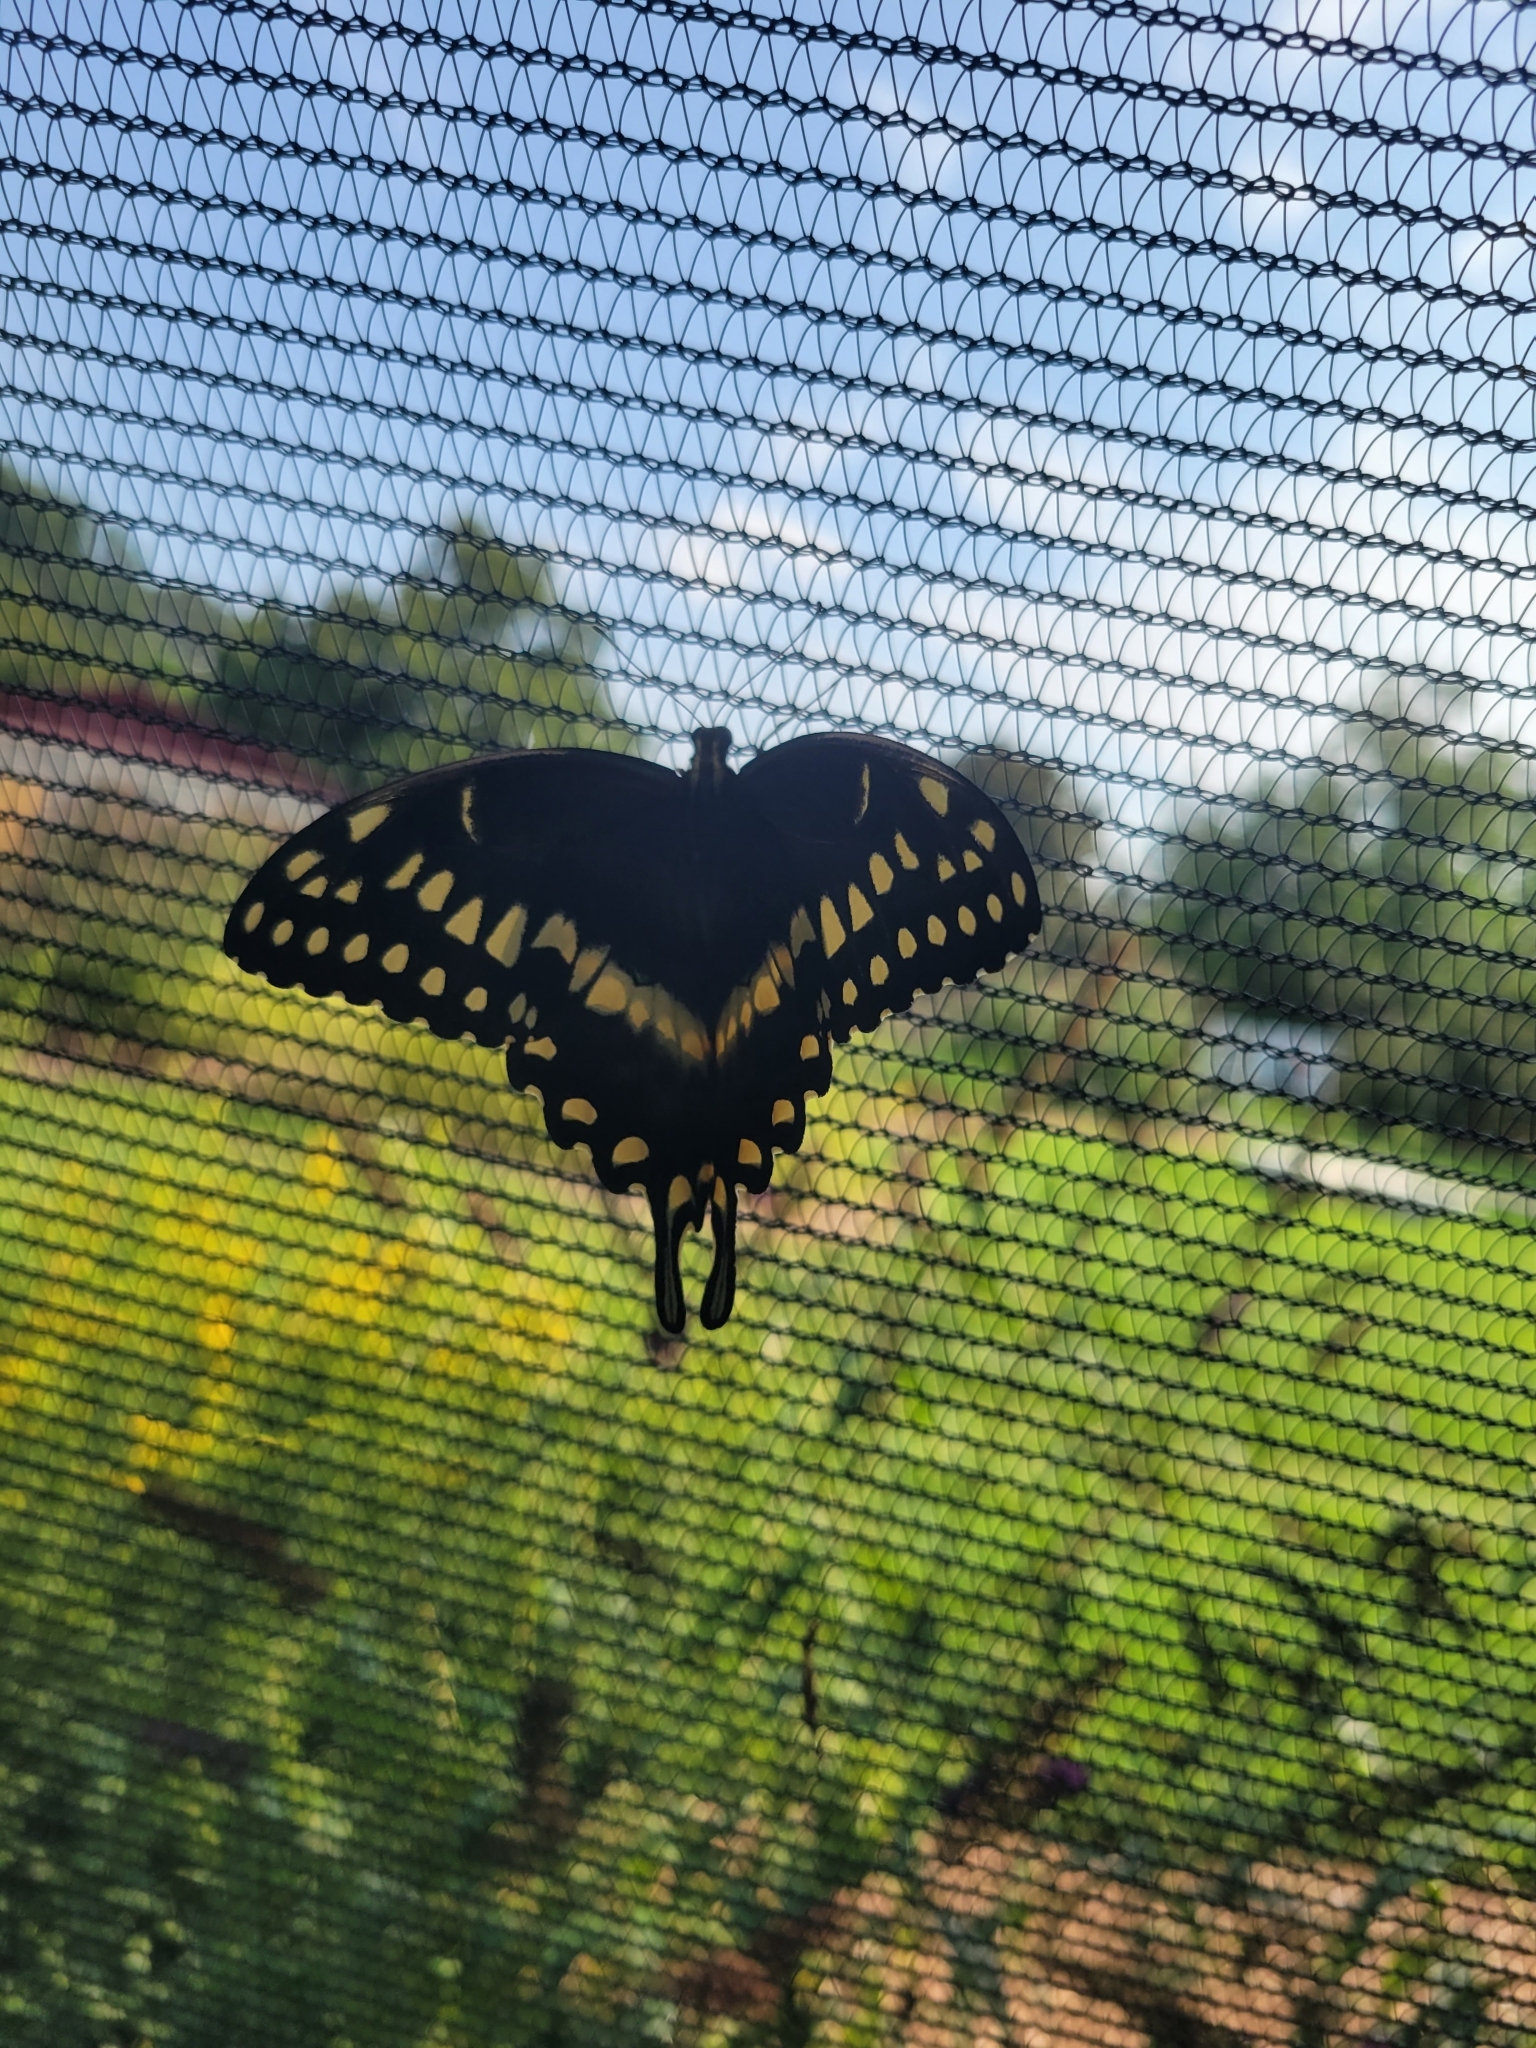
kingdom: Animalia
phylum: Arthropoda
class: Insecta
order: Lepidoptera
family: Papilionidae
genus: Papilio
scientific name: Papilio palamedes
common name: Palamedes swallowtail
